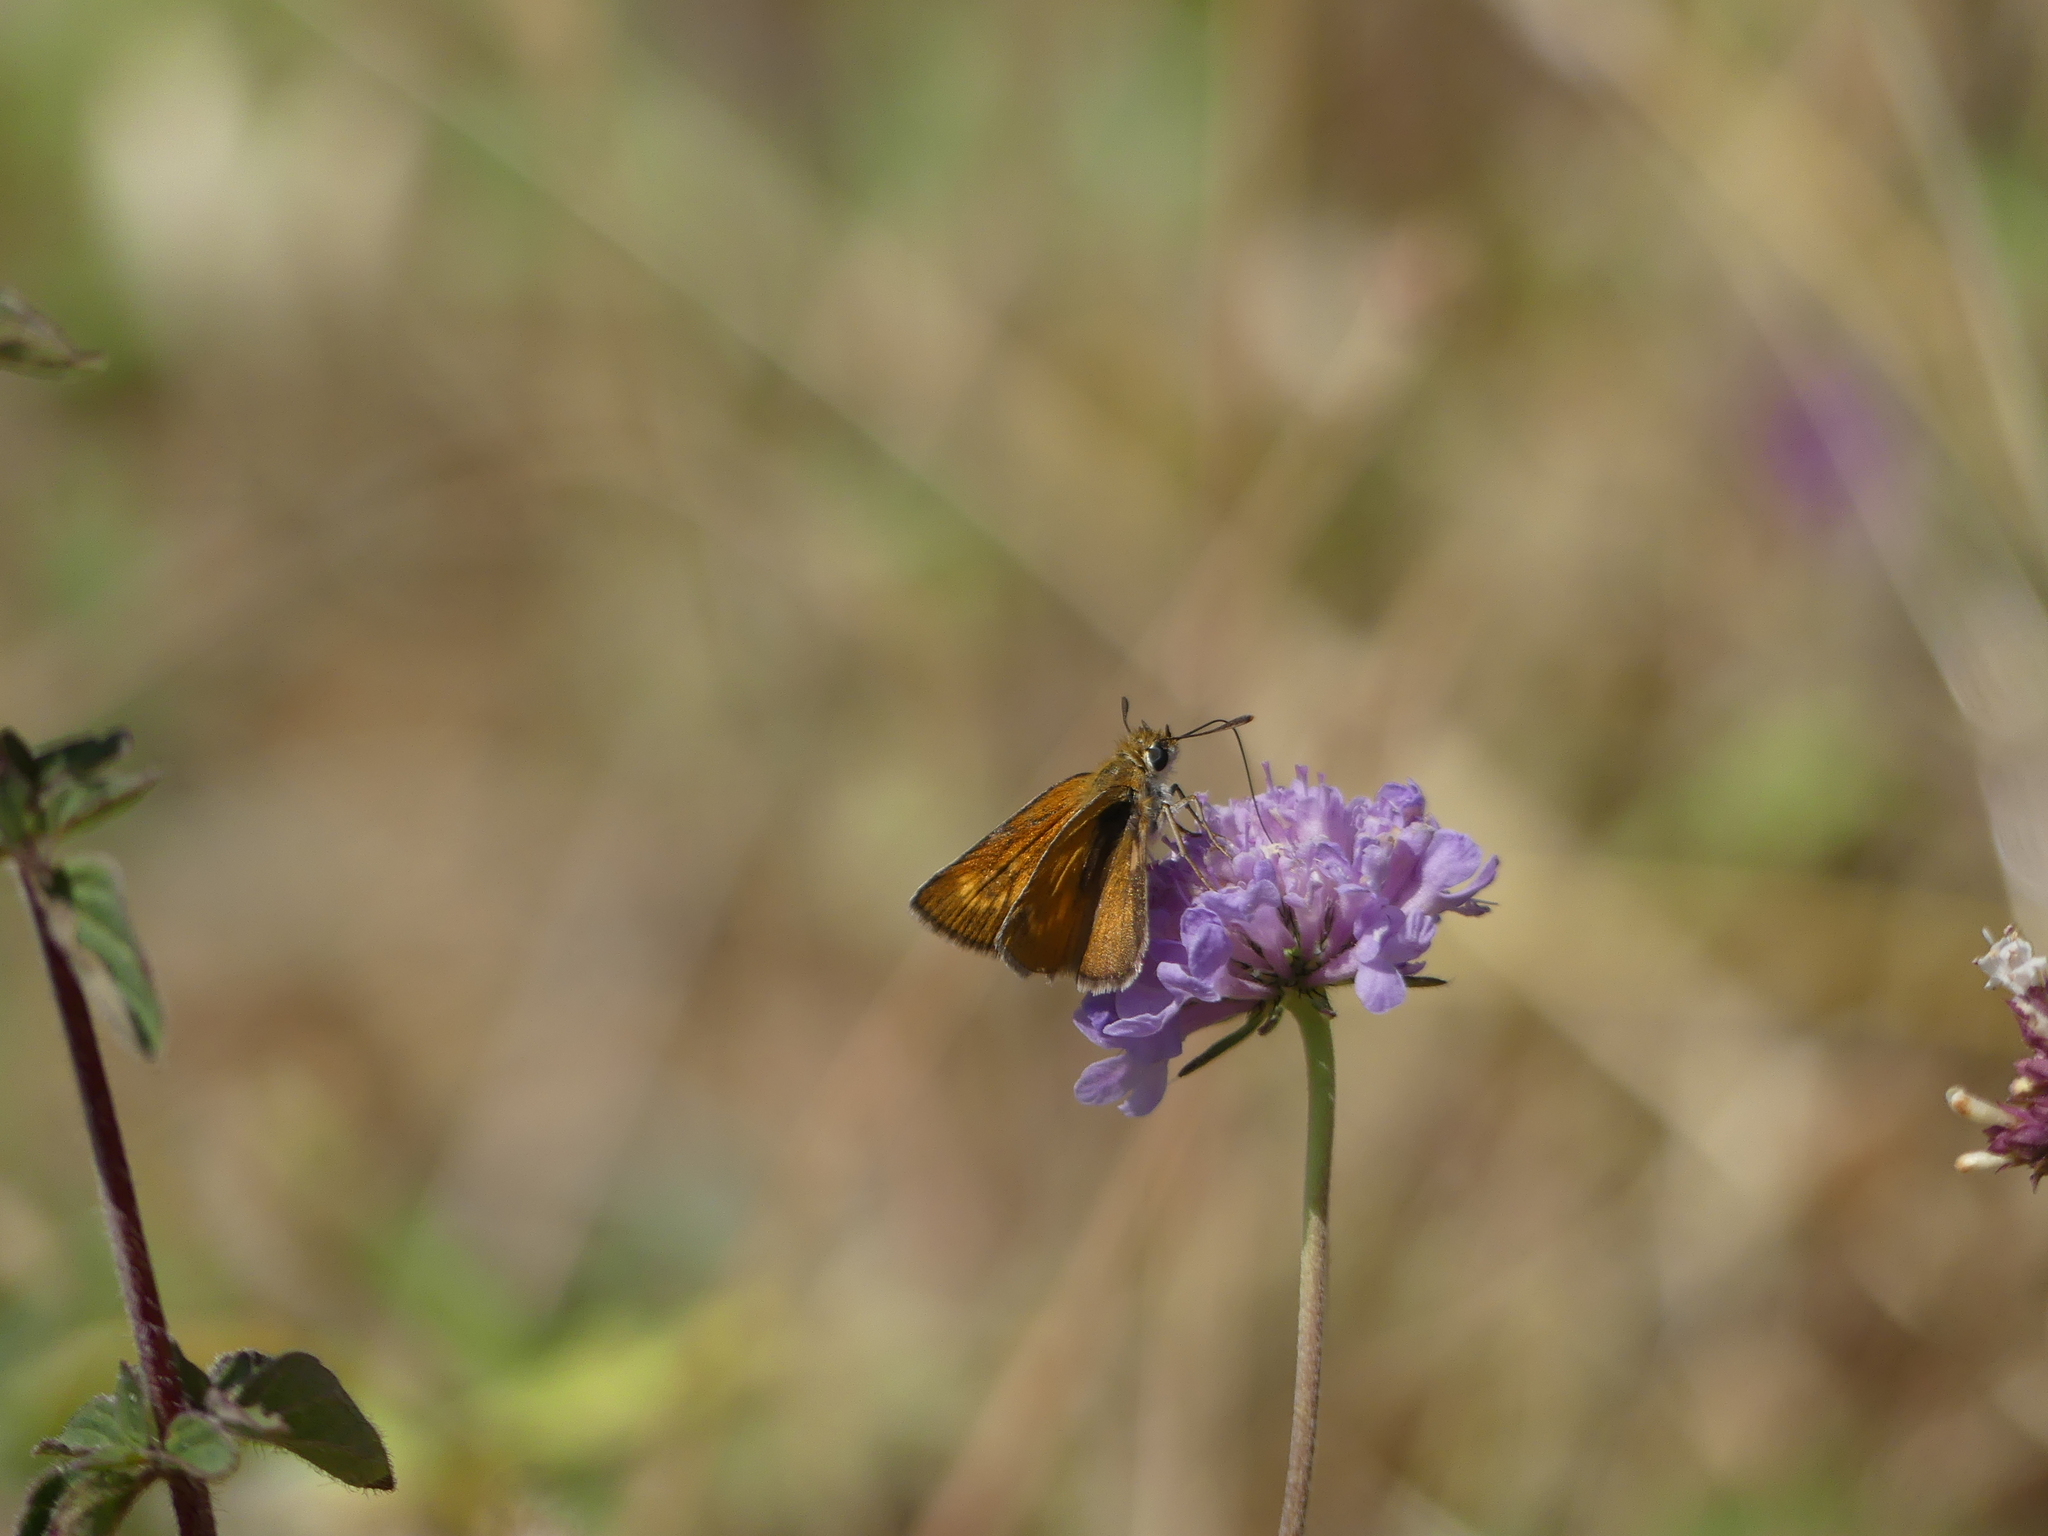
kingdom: Animalia
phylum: Arthropoda
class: Insecta
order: Lepidoptera
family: Hesperiidae
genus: Ochlodes
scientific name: Ochlodes venata
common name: Large skipper
